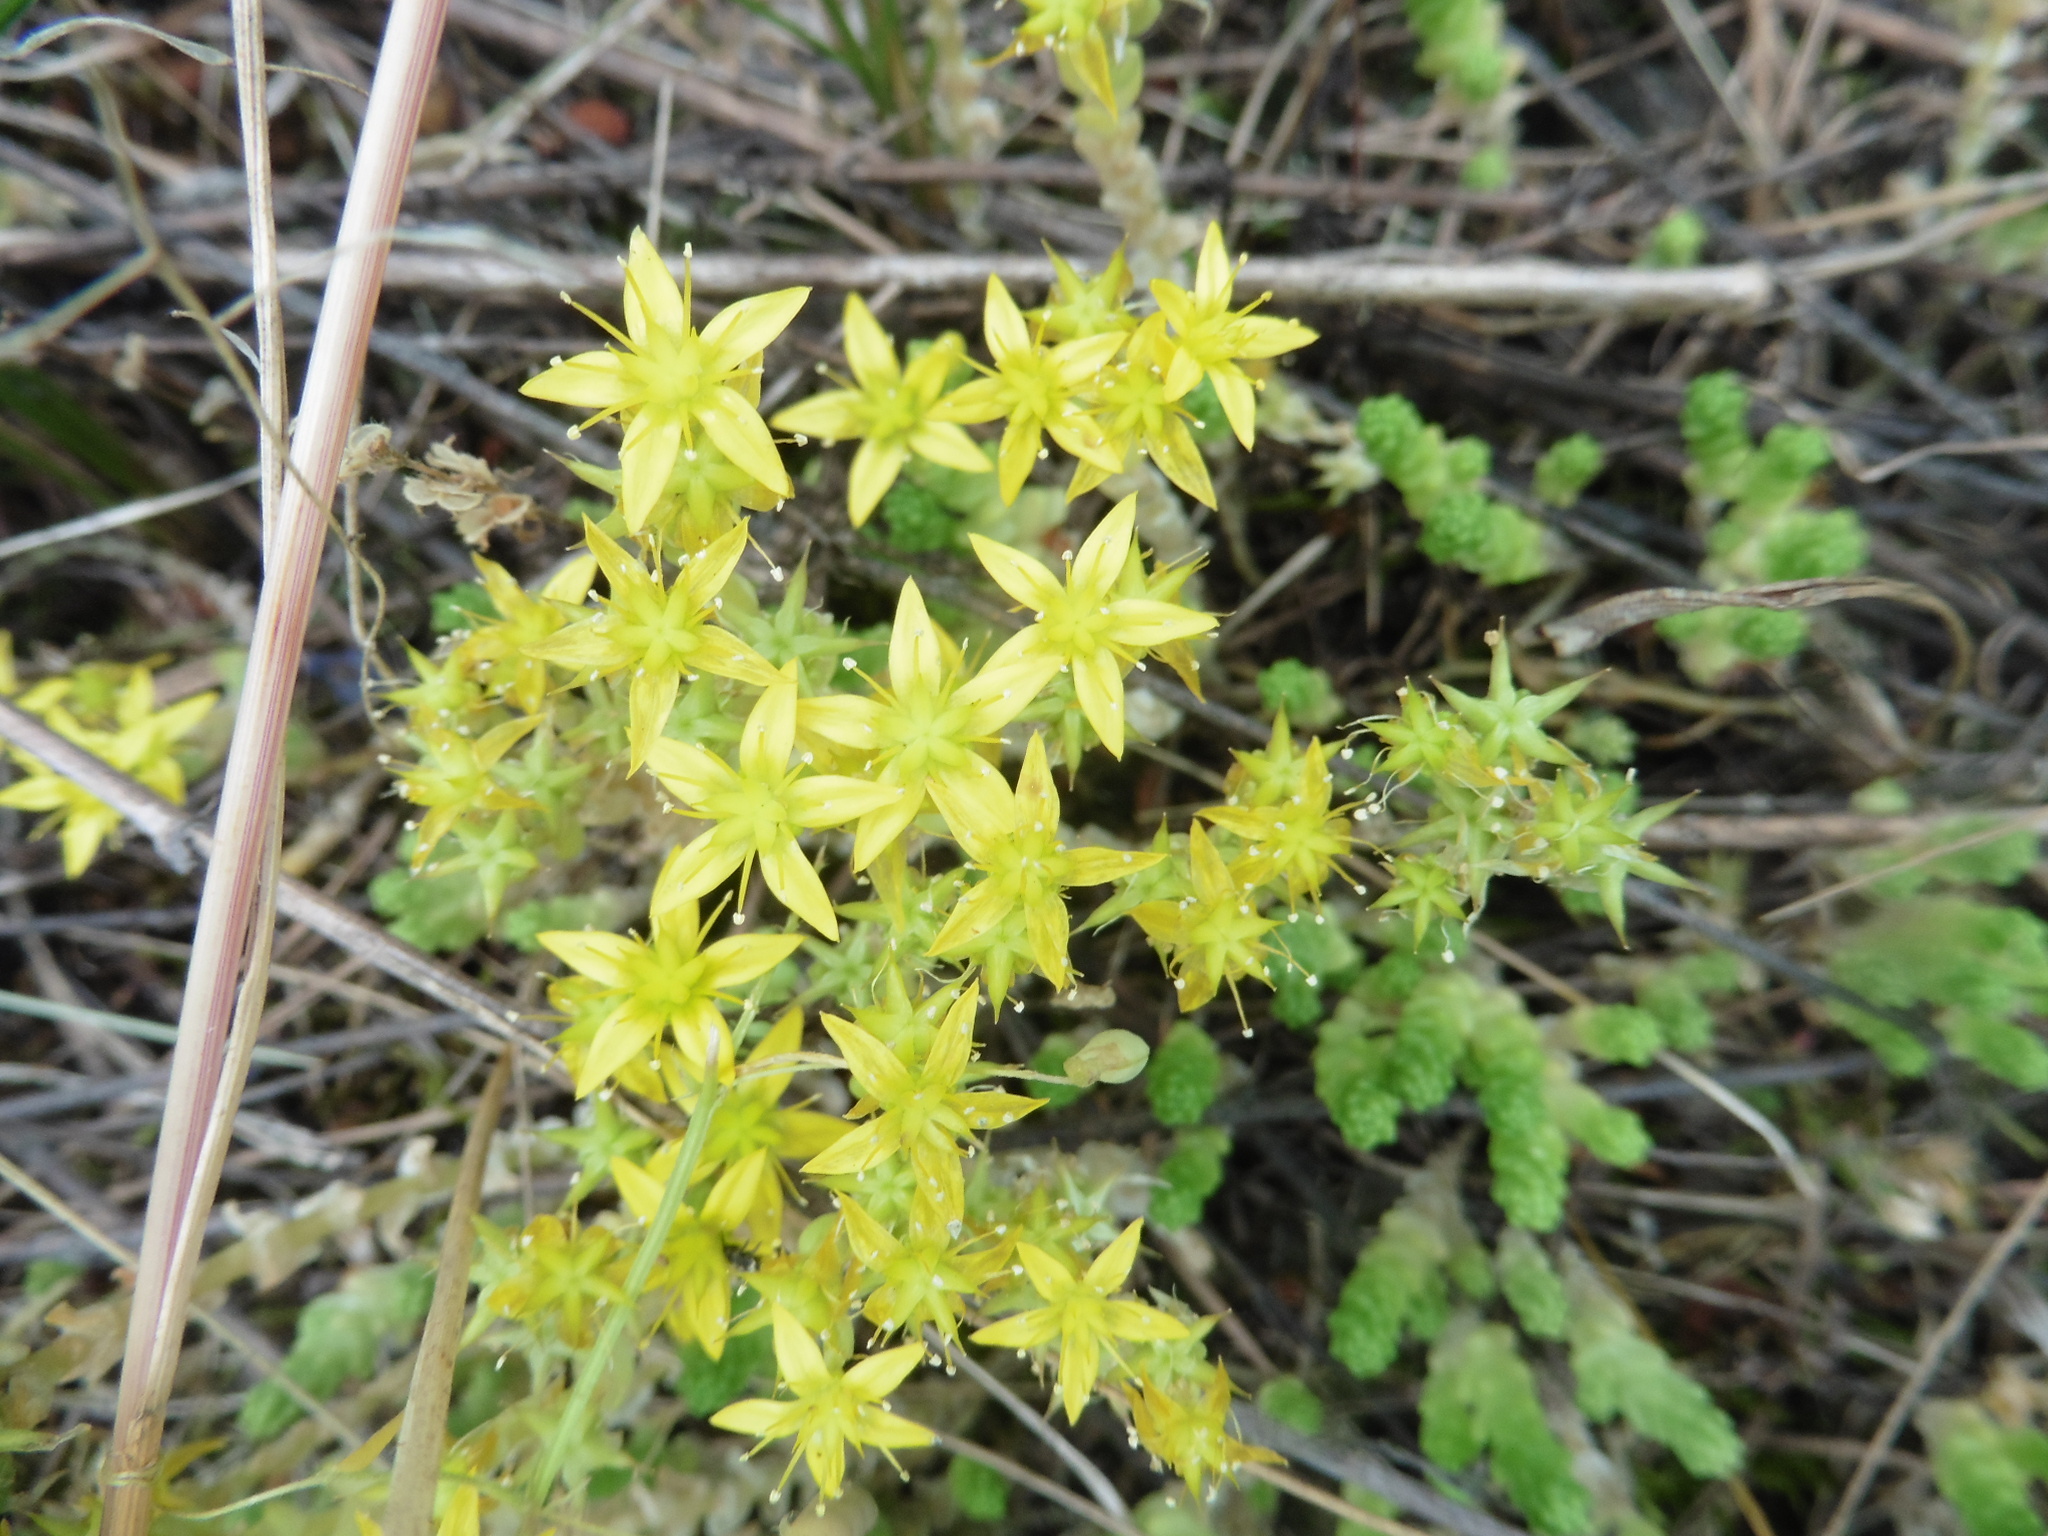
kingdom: Plantae
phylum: Tracheophyta
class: Magnoliopsida
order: Saxifragales
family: Crassulaceae
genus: Sedum
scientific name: Sedum acre
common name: Biting stonecrop
